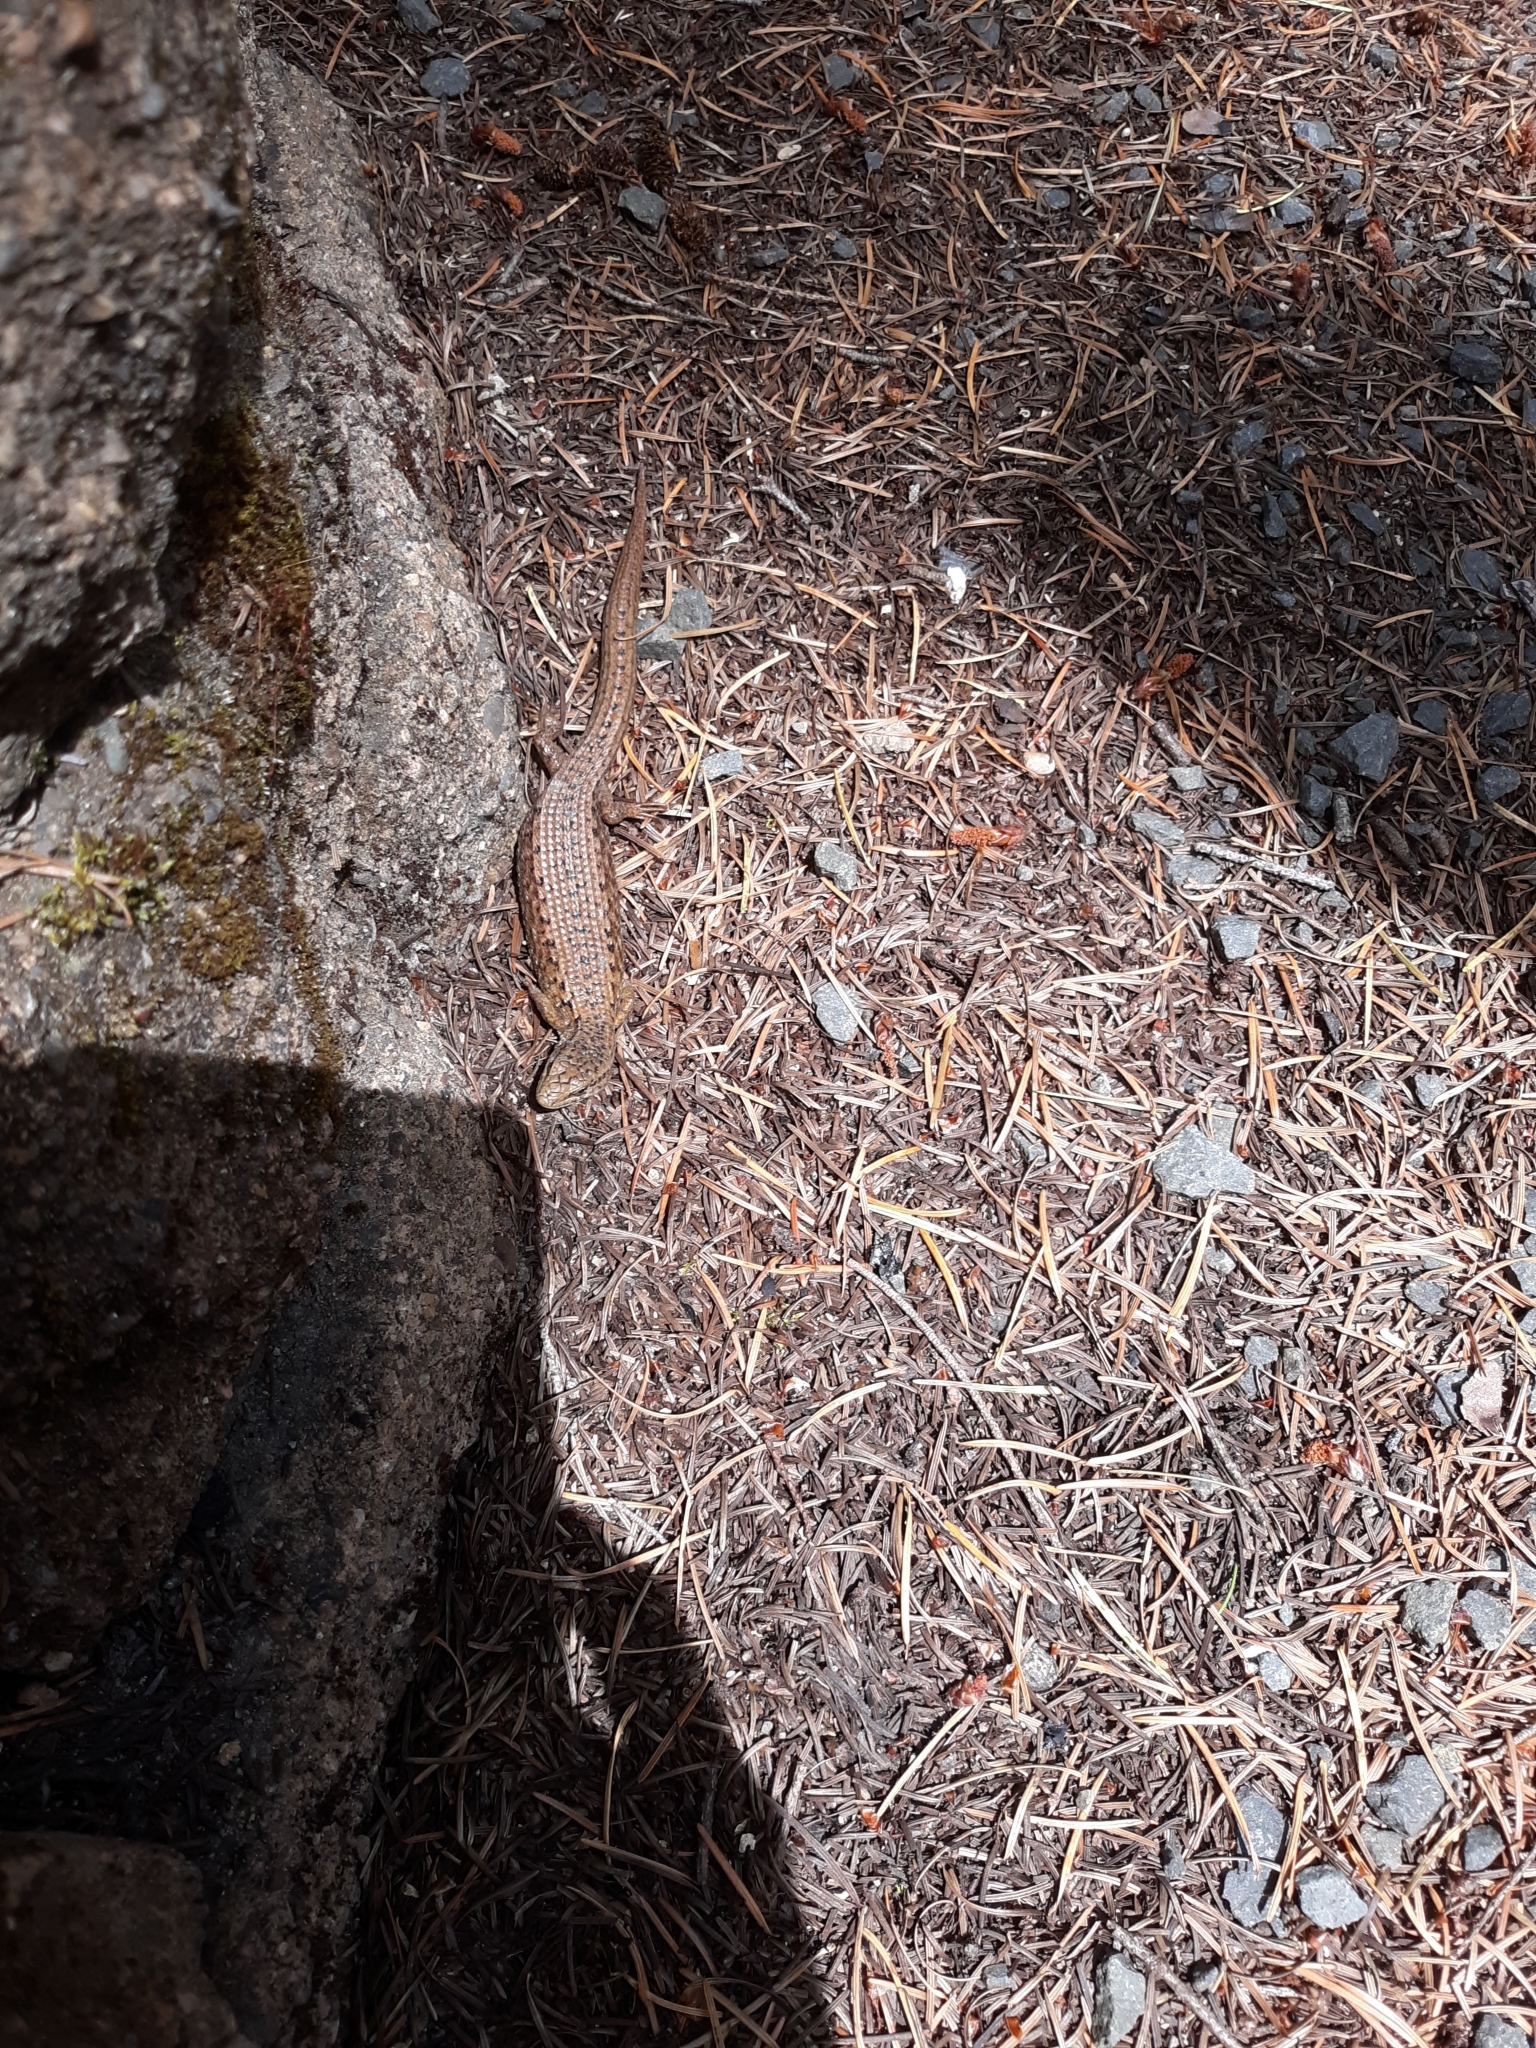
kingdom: Animalia
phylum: Chordata
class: Squamata
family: Anguidae
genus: Elgaria
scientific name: Elgaria coerulea
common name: Northern alligator lizard
